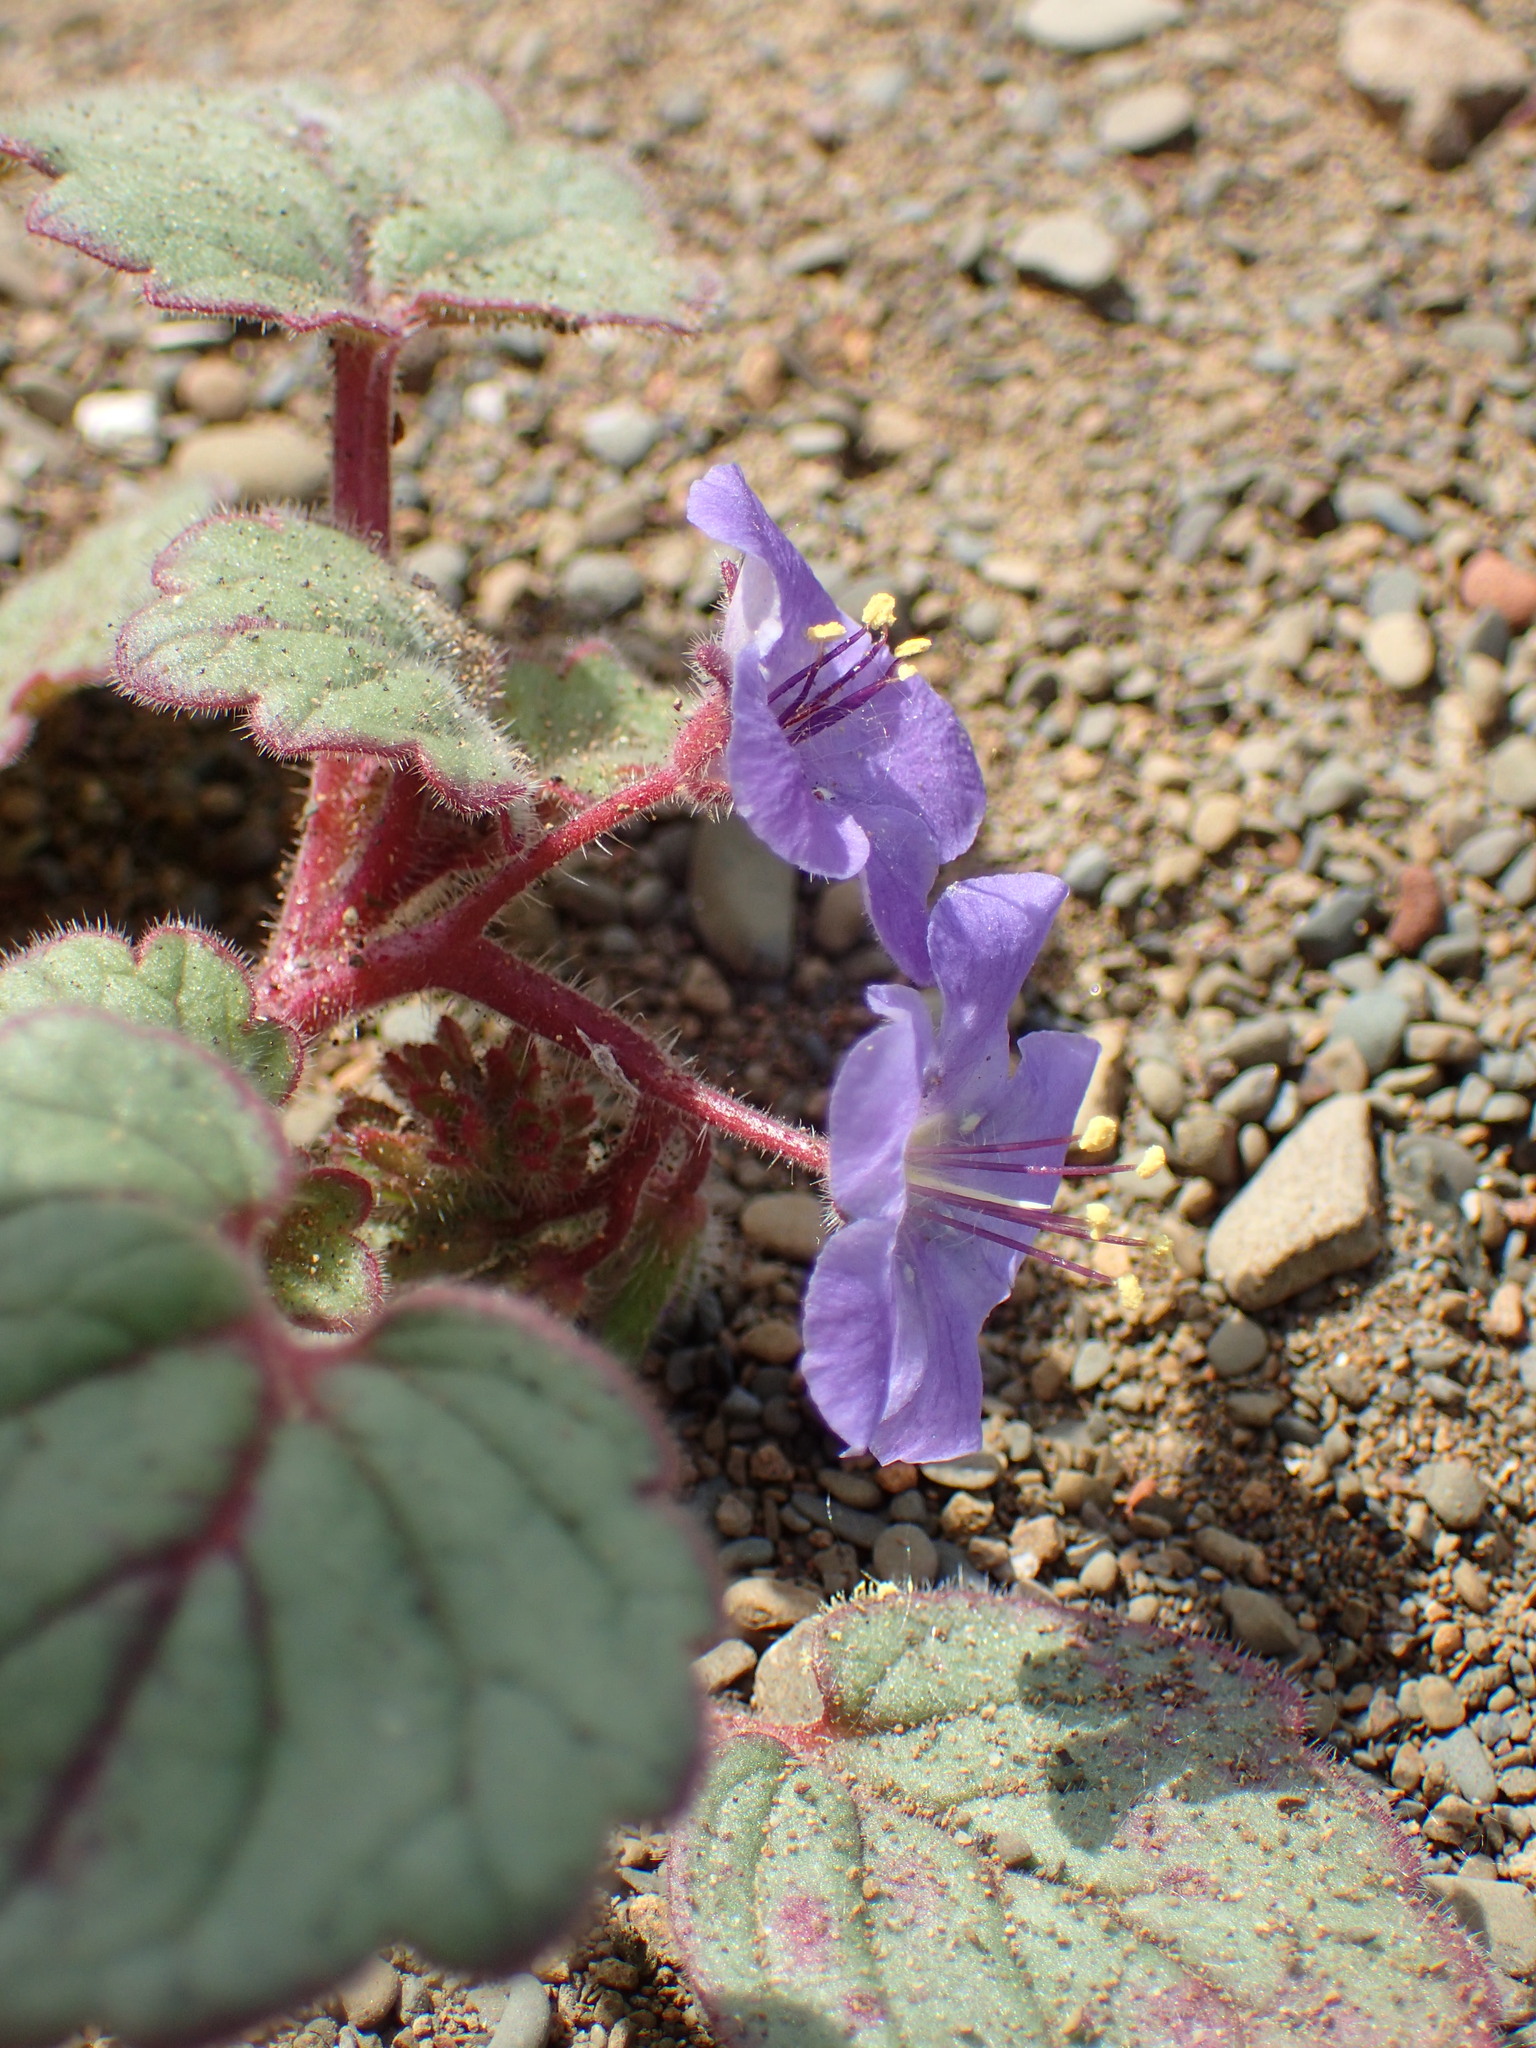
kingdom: Plantae
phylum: Tracheophyta
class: Magnoliopsida
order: Boraginales
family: Hydrophyllaceae
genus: Phacelia
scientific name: Phacelia longipes
